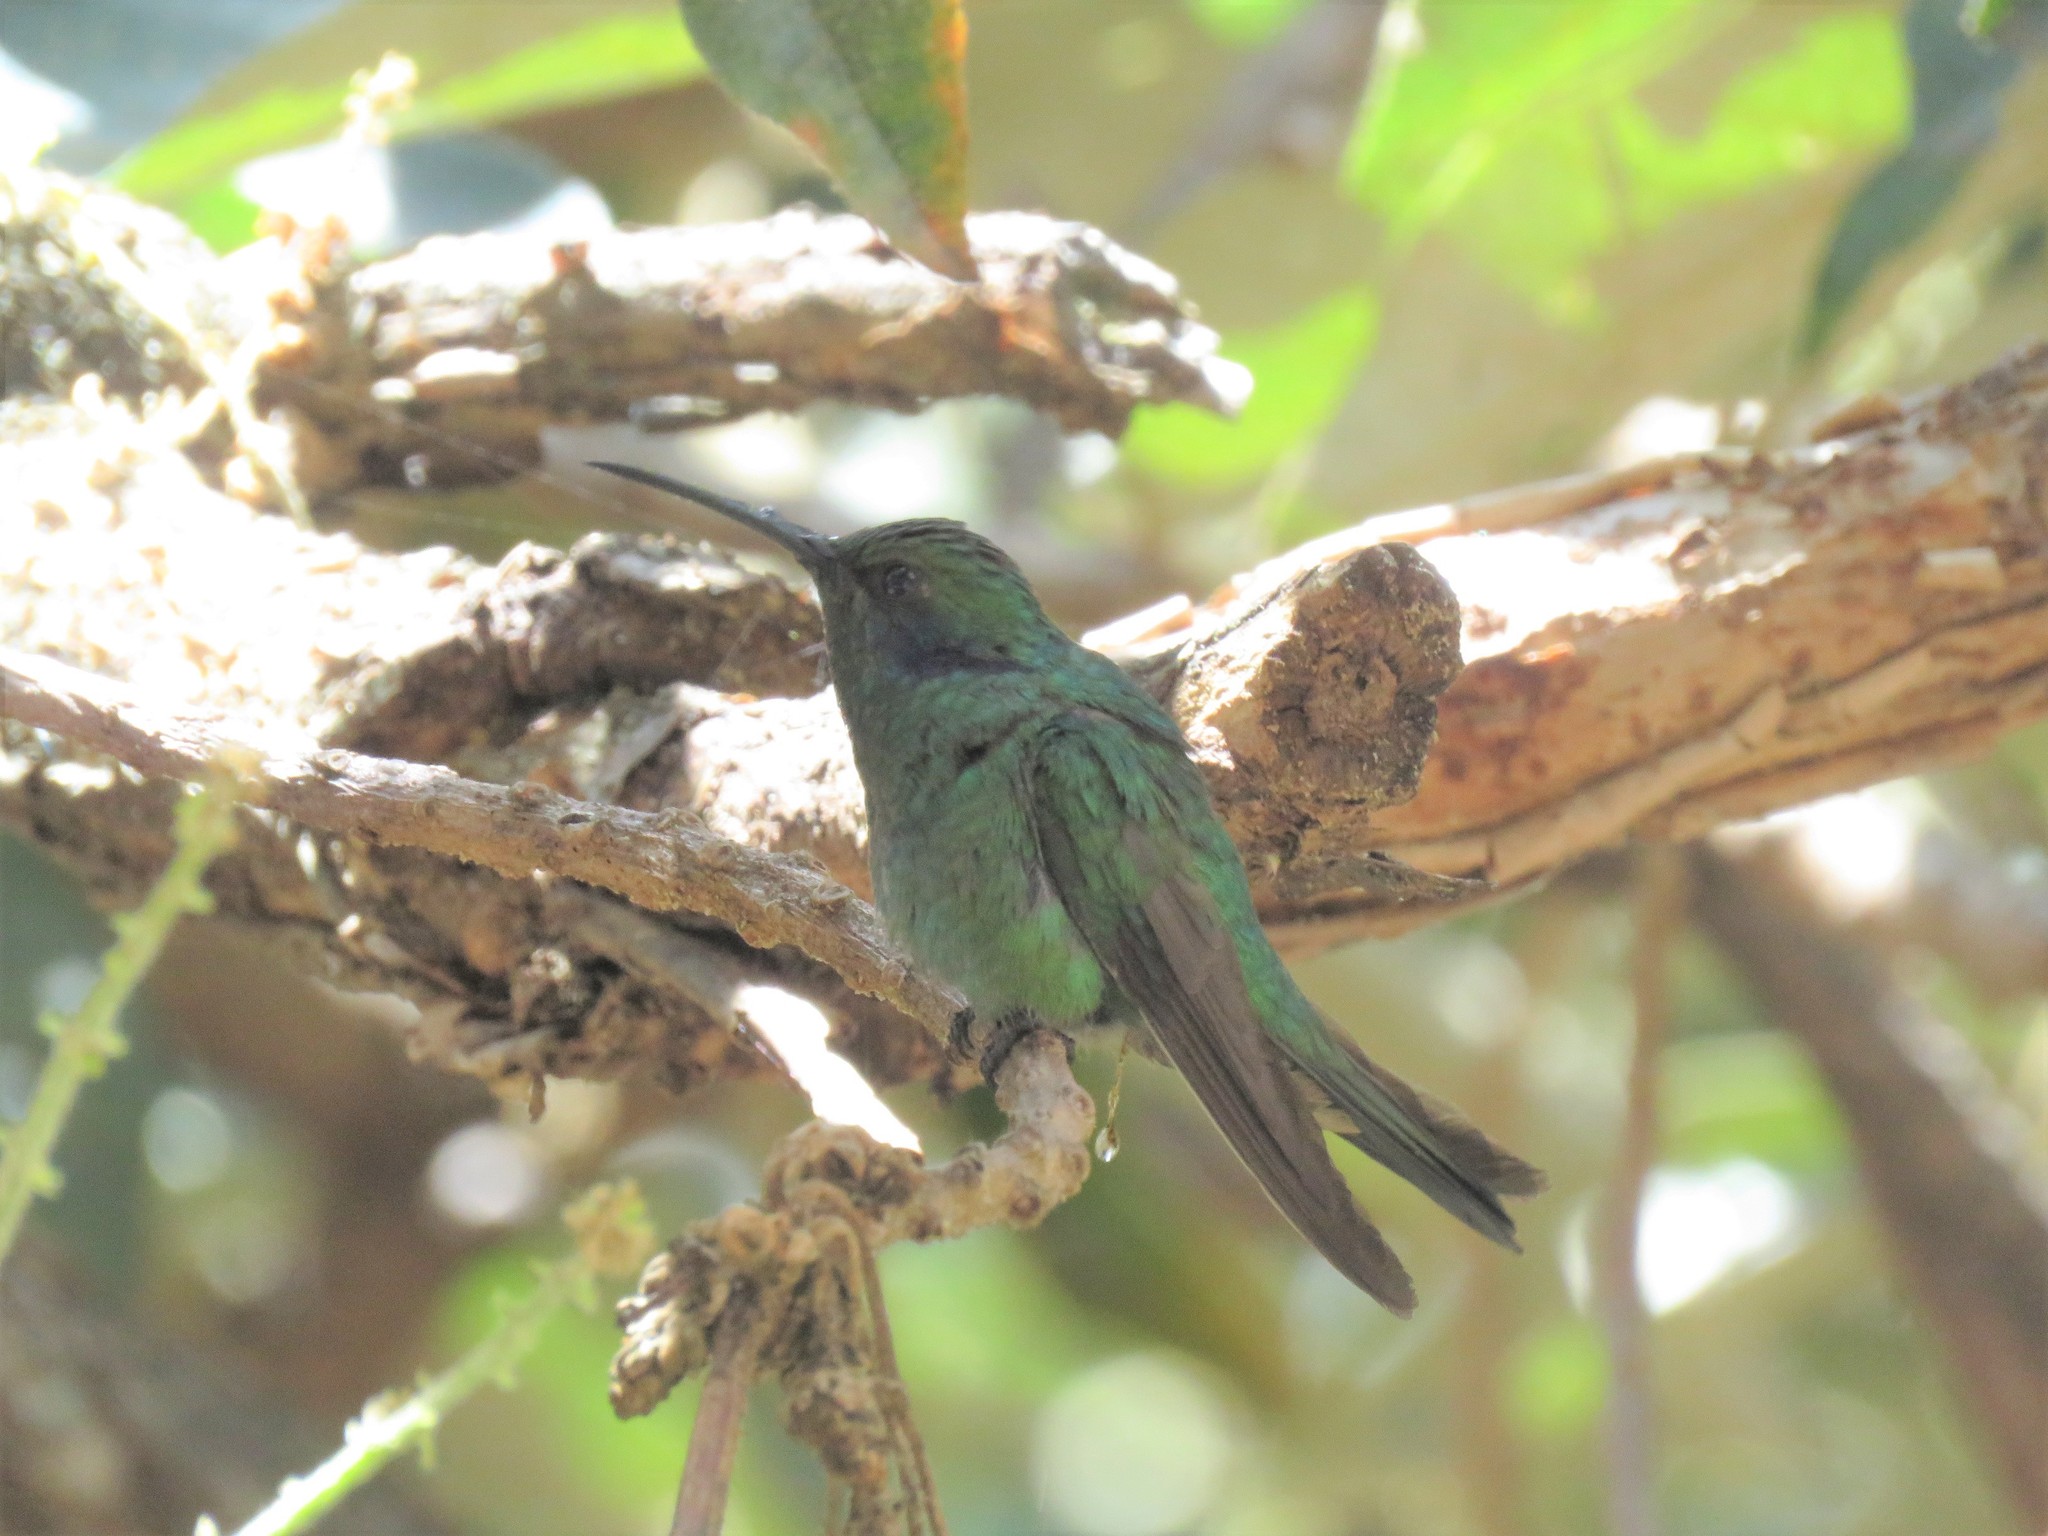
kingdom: Animalia
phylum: Chordata
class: Aves
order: Apodiformes
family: Trochilidae
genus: Colibri
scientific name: Colibri cyanotus
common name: Lesser violetear
